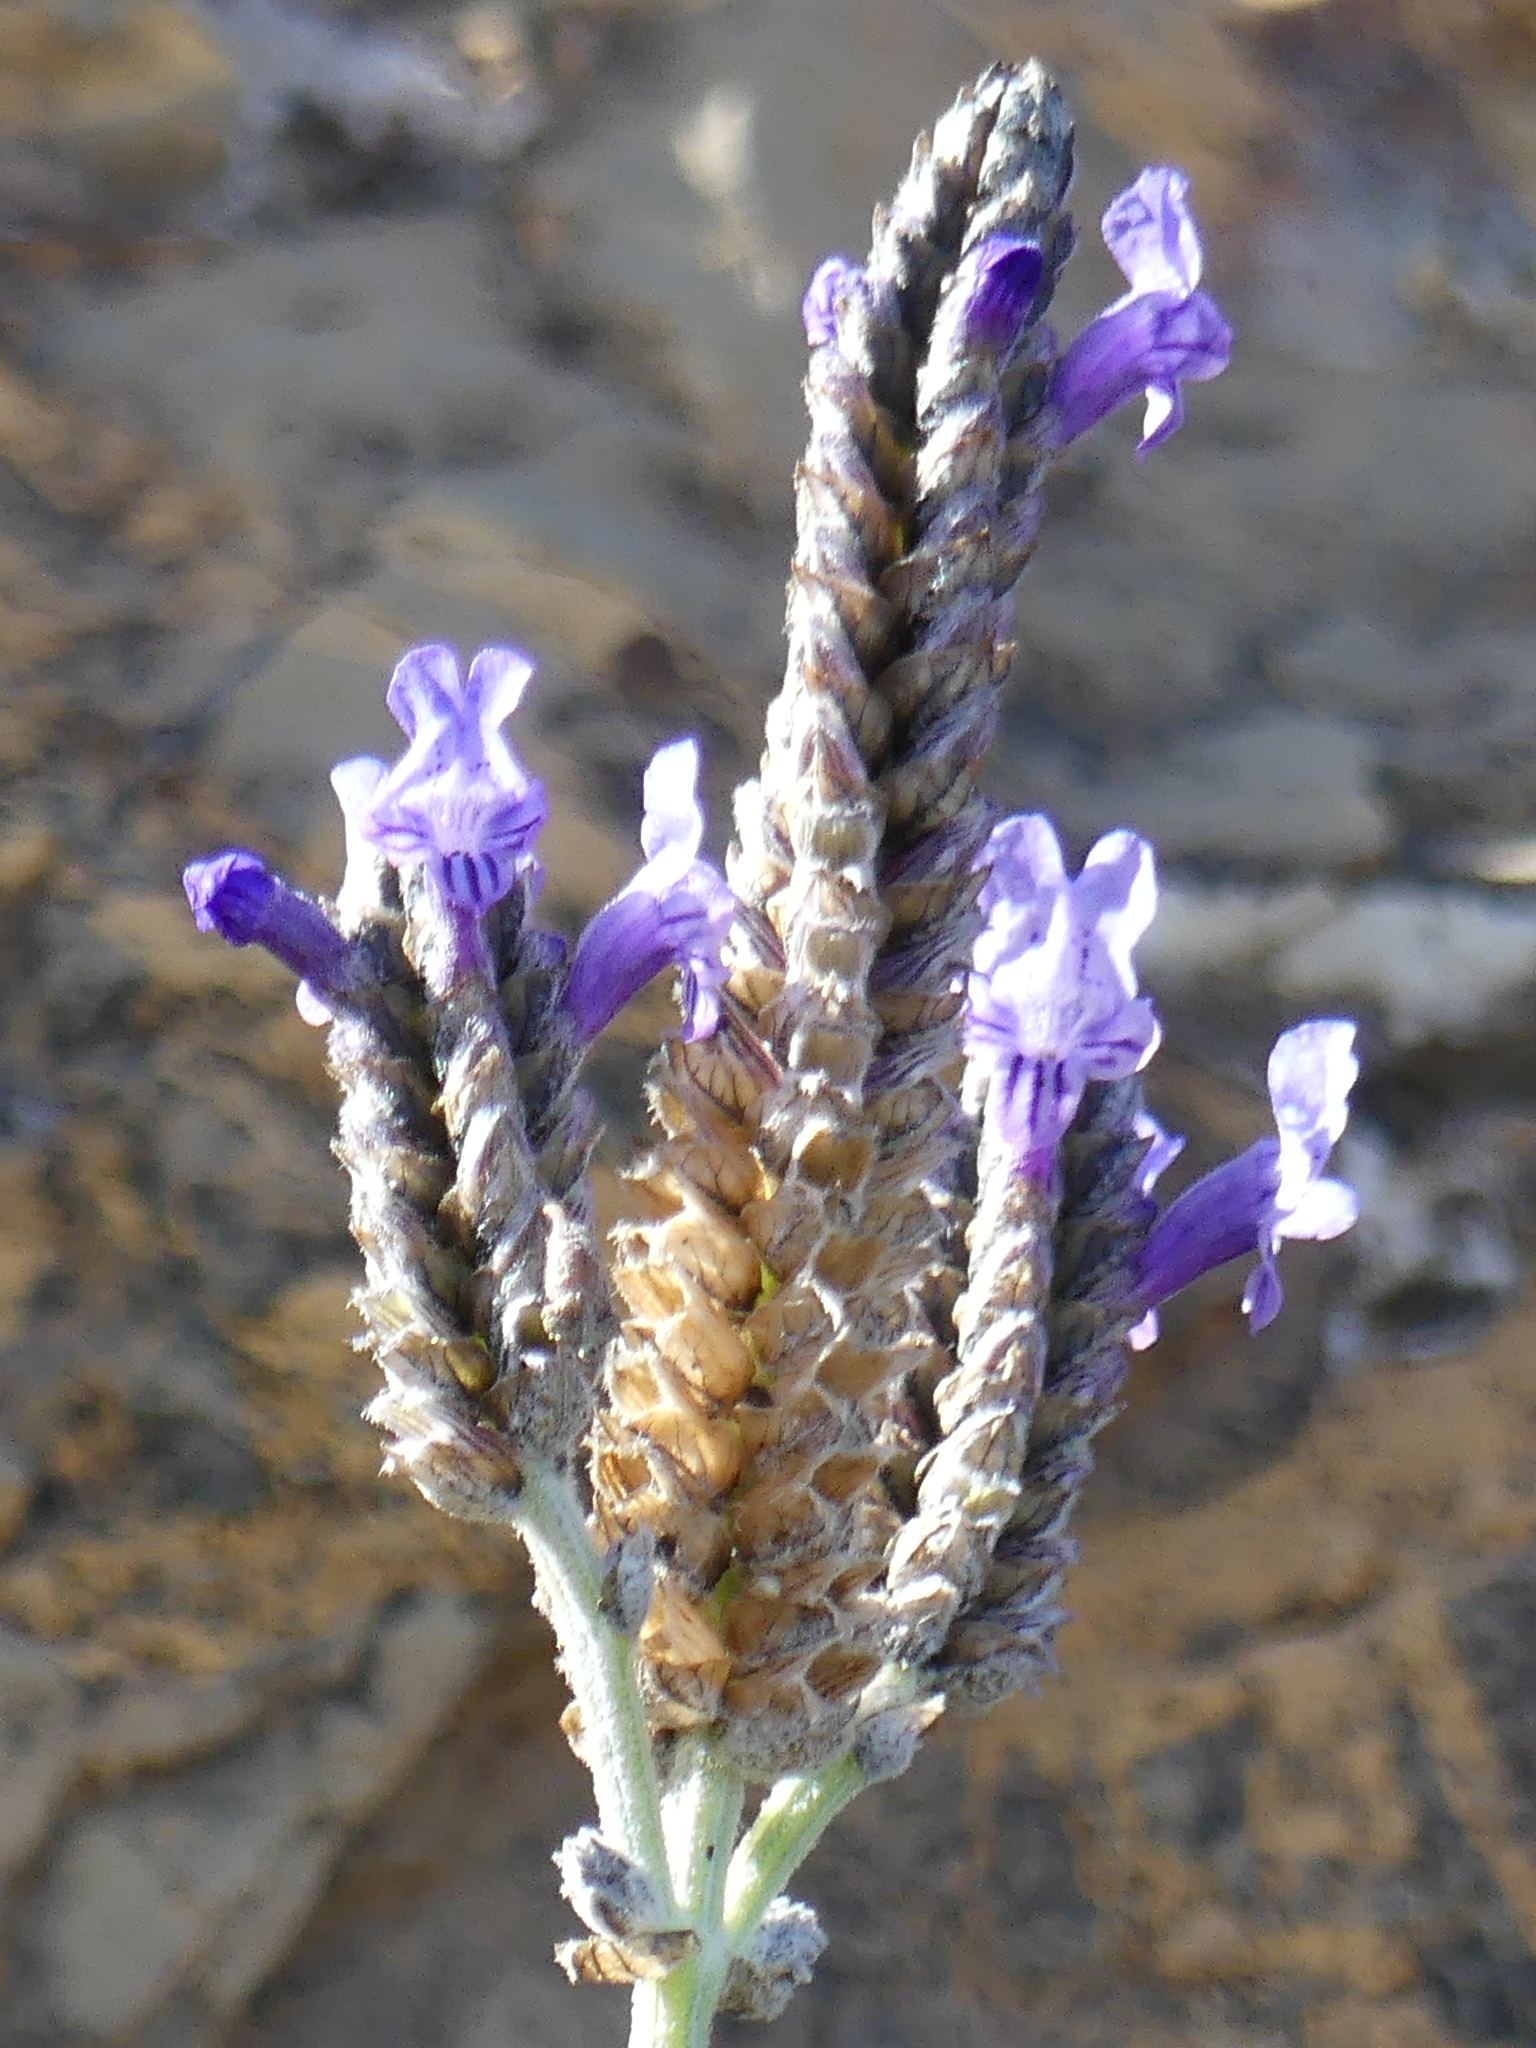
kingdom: Plantae
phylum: Tracheophyta
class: Magnoliopsida
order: Lamiales
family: Lamiaceae
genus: Lavandula
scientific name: Lavandula multifida
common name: Fern-leaf lavender
